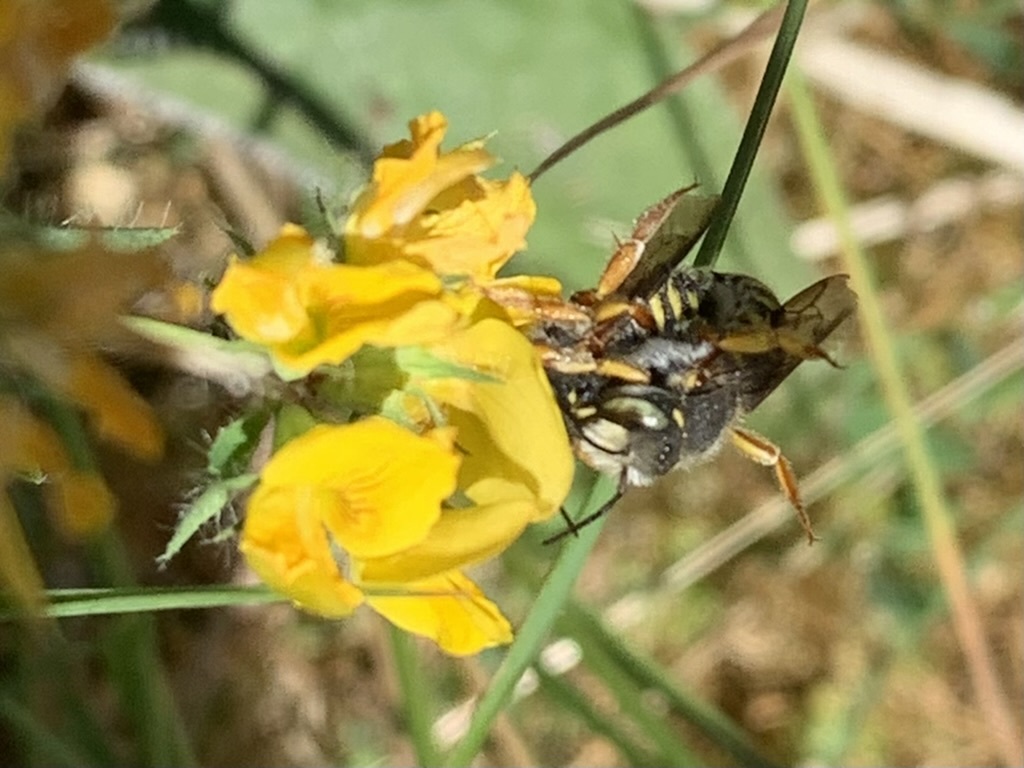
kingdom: Animalia
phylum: Arthropoda
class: Insecta
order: Hymenoptera
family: Megachilidae
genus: Anthidium
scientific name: Anthidium oblongatum
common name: Oblong wool carder bee
